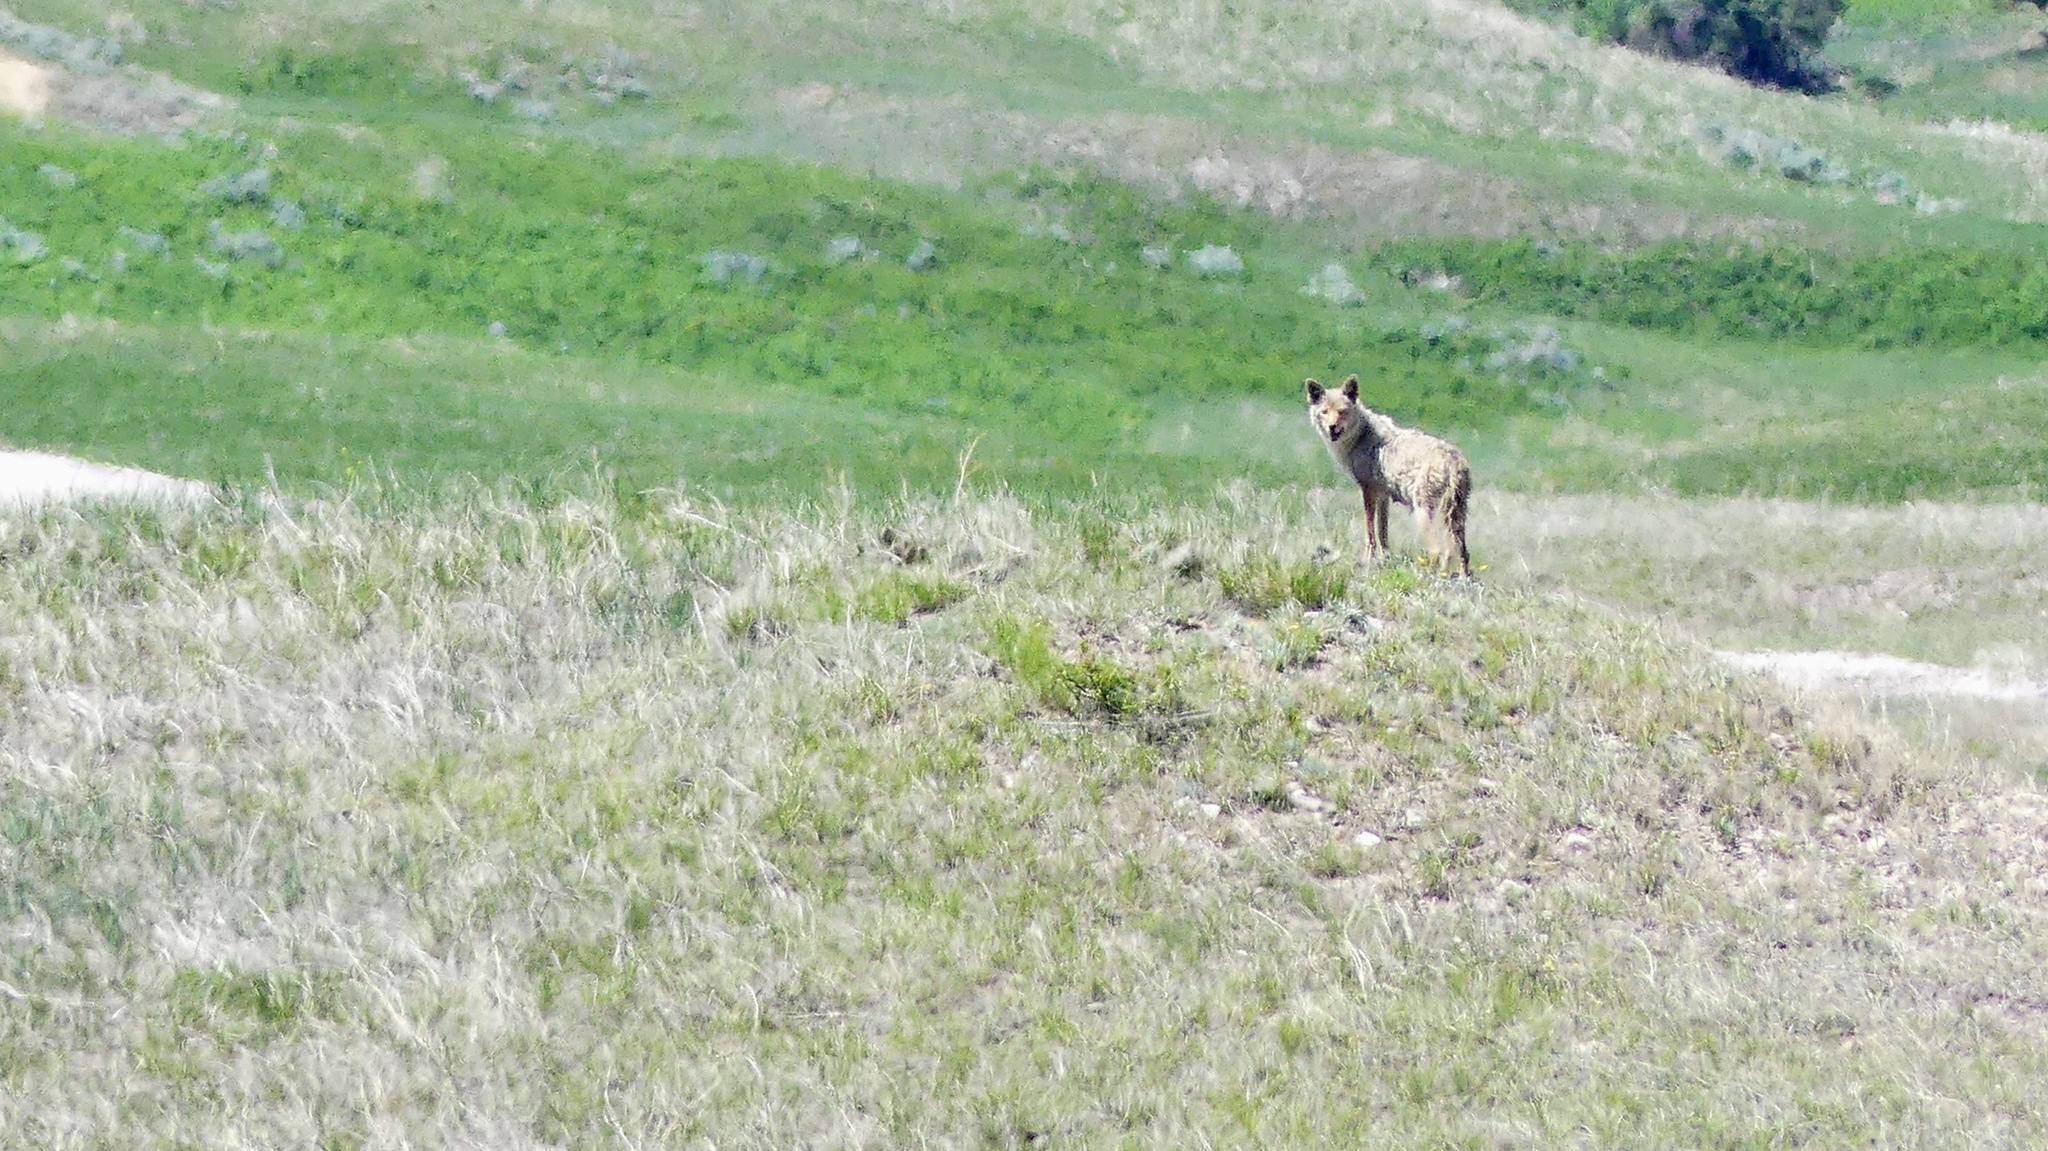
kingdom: Animalia
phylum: Chordata
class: Mammalia
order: Carnivora
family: Canidae
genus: Canis
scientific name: Canis latrans
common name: Coyote
